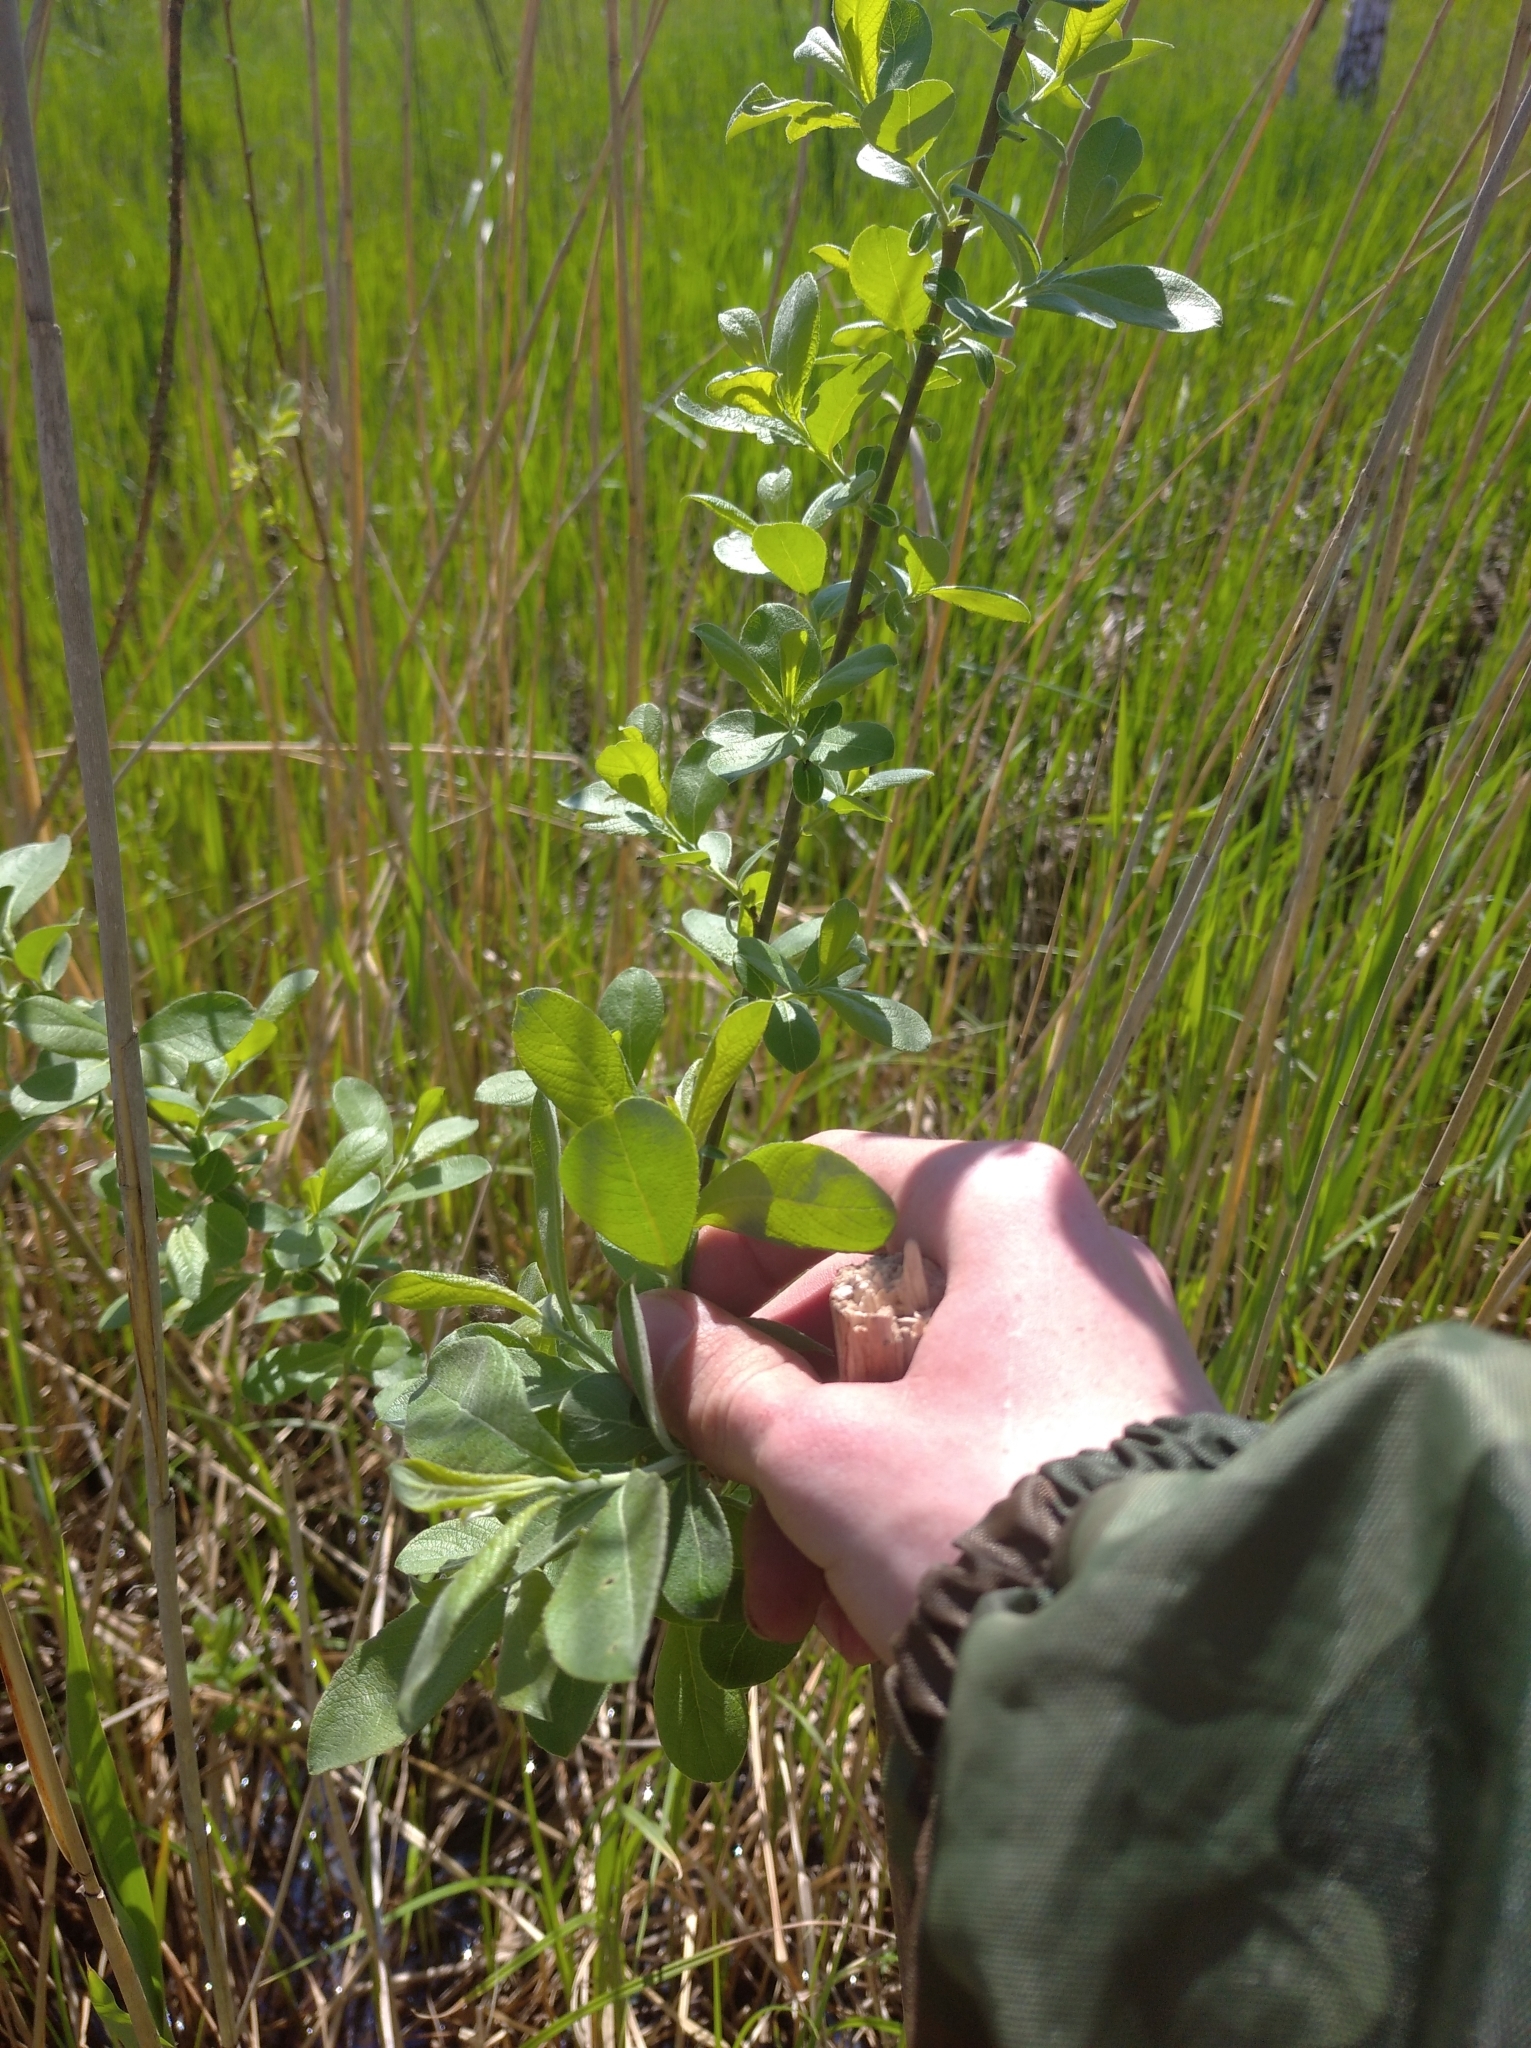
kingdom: Plantae
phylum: Tracheophyta
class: Magnoliopsida
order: Malpighiales
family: Salicaceae
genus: Salix
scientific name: Salix cinerea
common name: Common sallow
